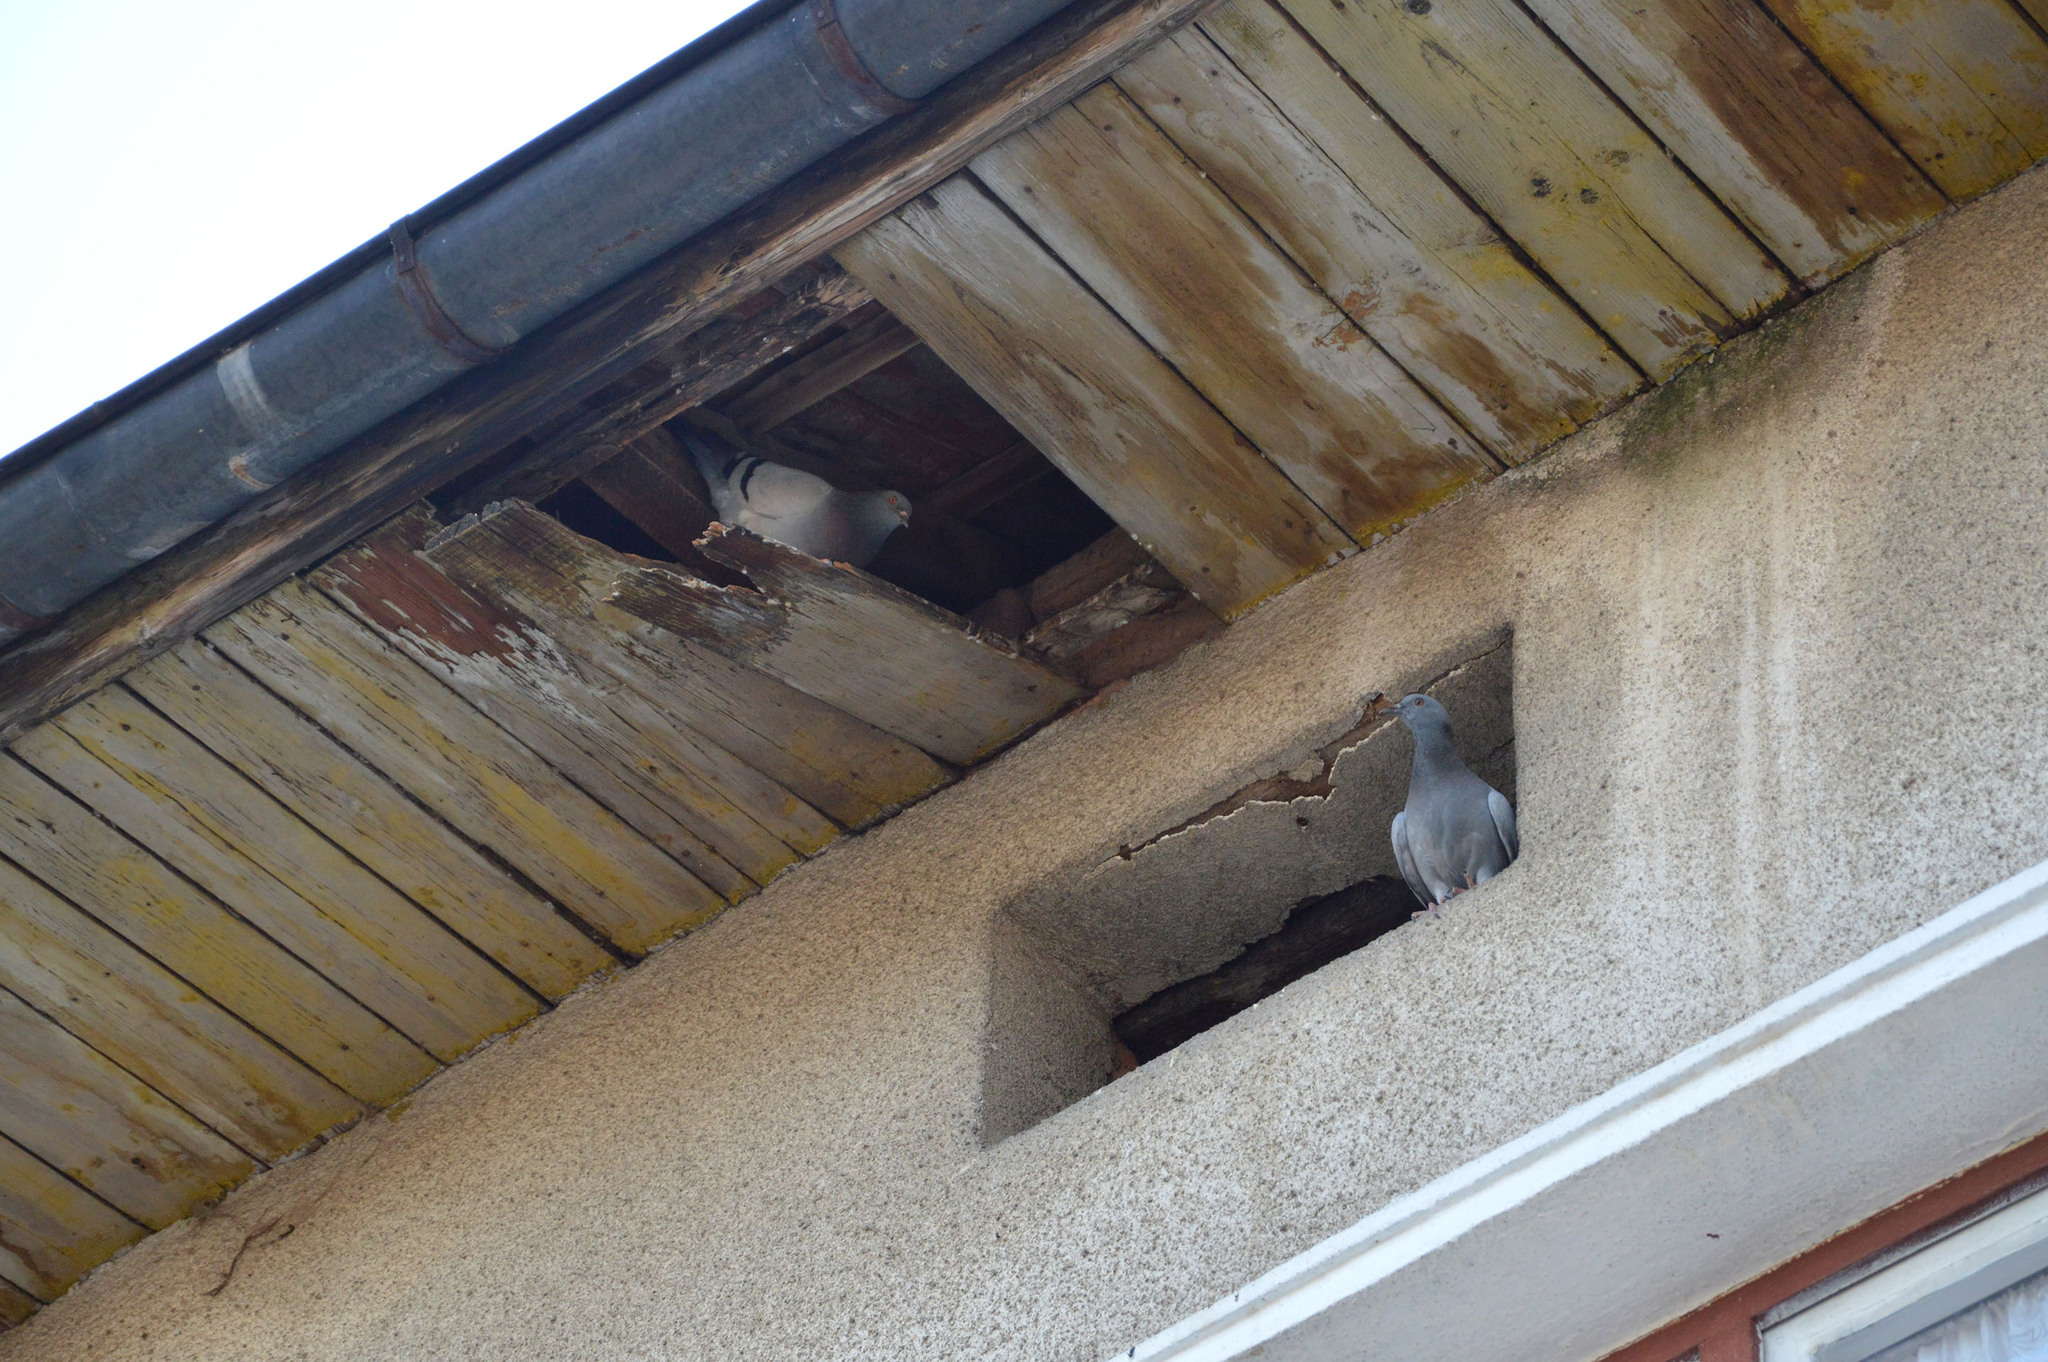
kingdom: Animalia
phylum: Chordata
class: Aves
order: Columbiformes
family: Columbidae
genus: Columba
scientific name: Columba livia
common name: Rock pigeon
